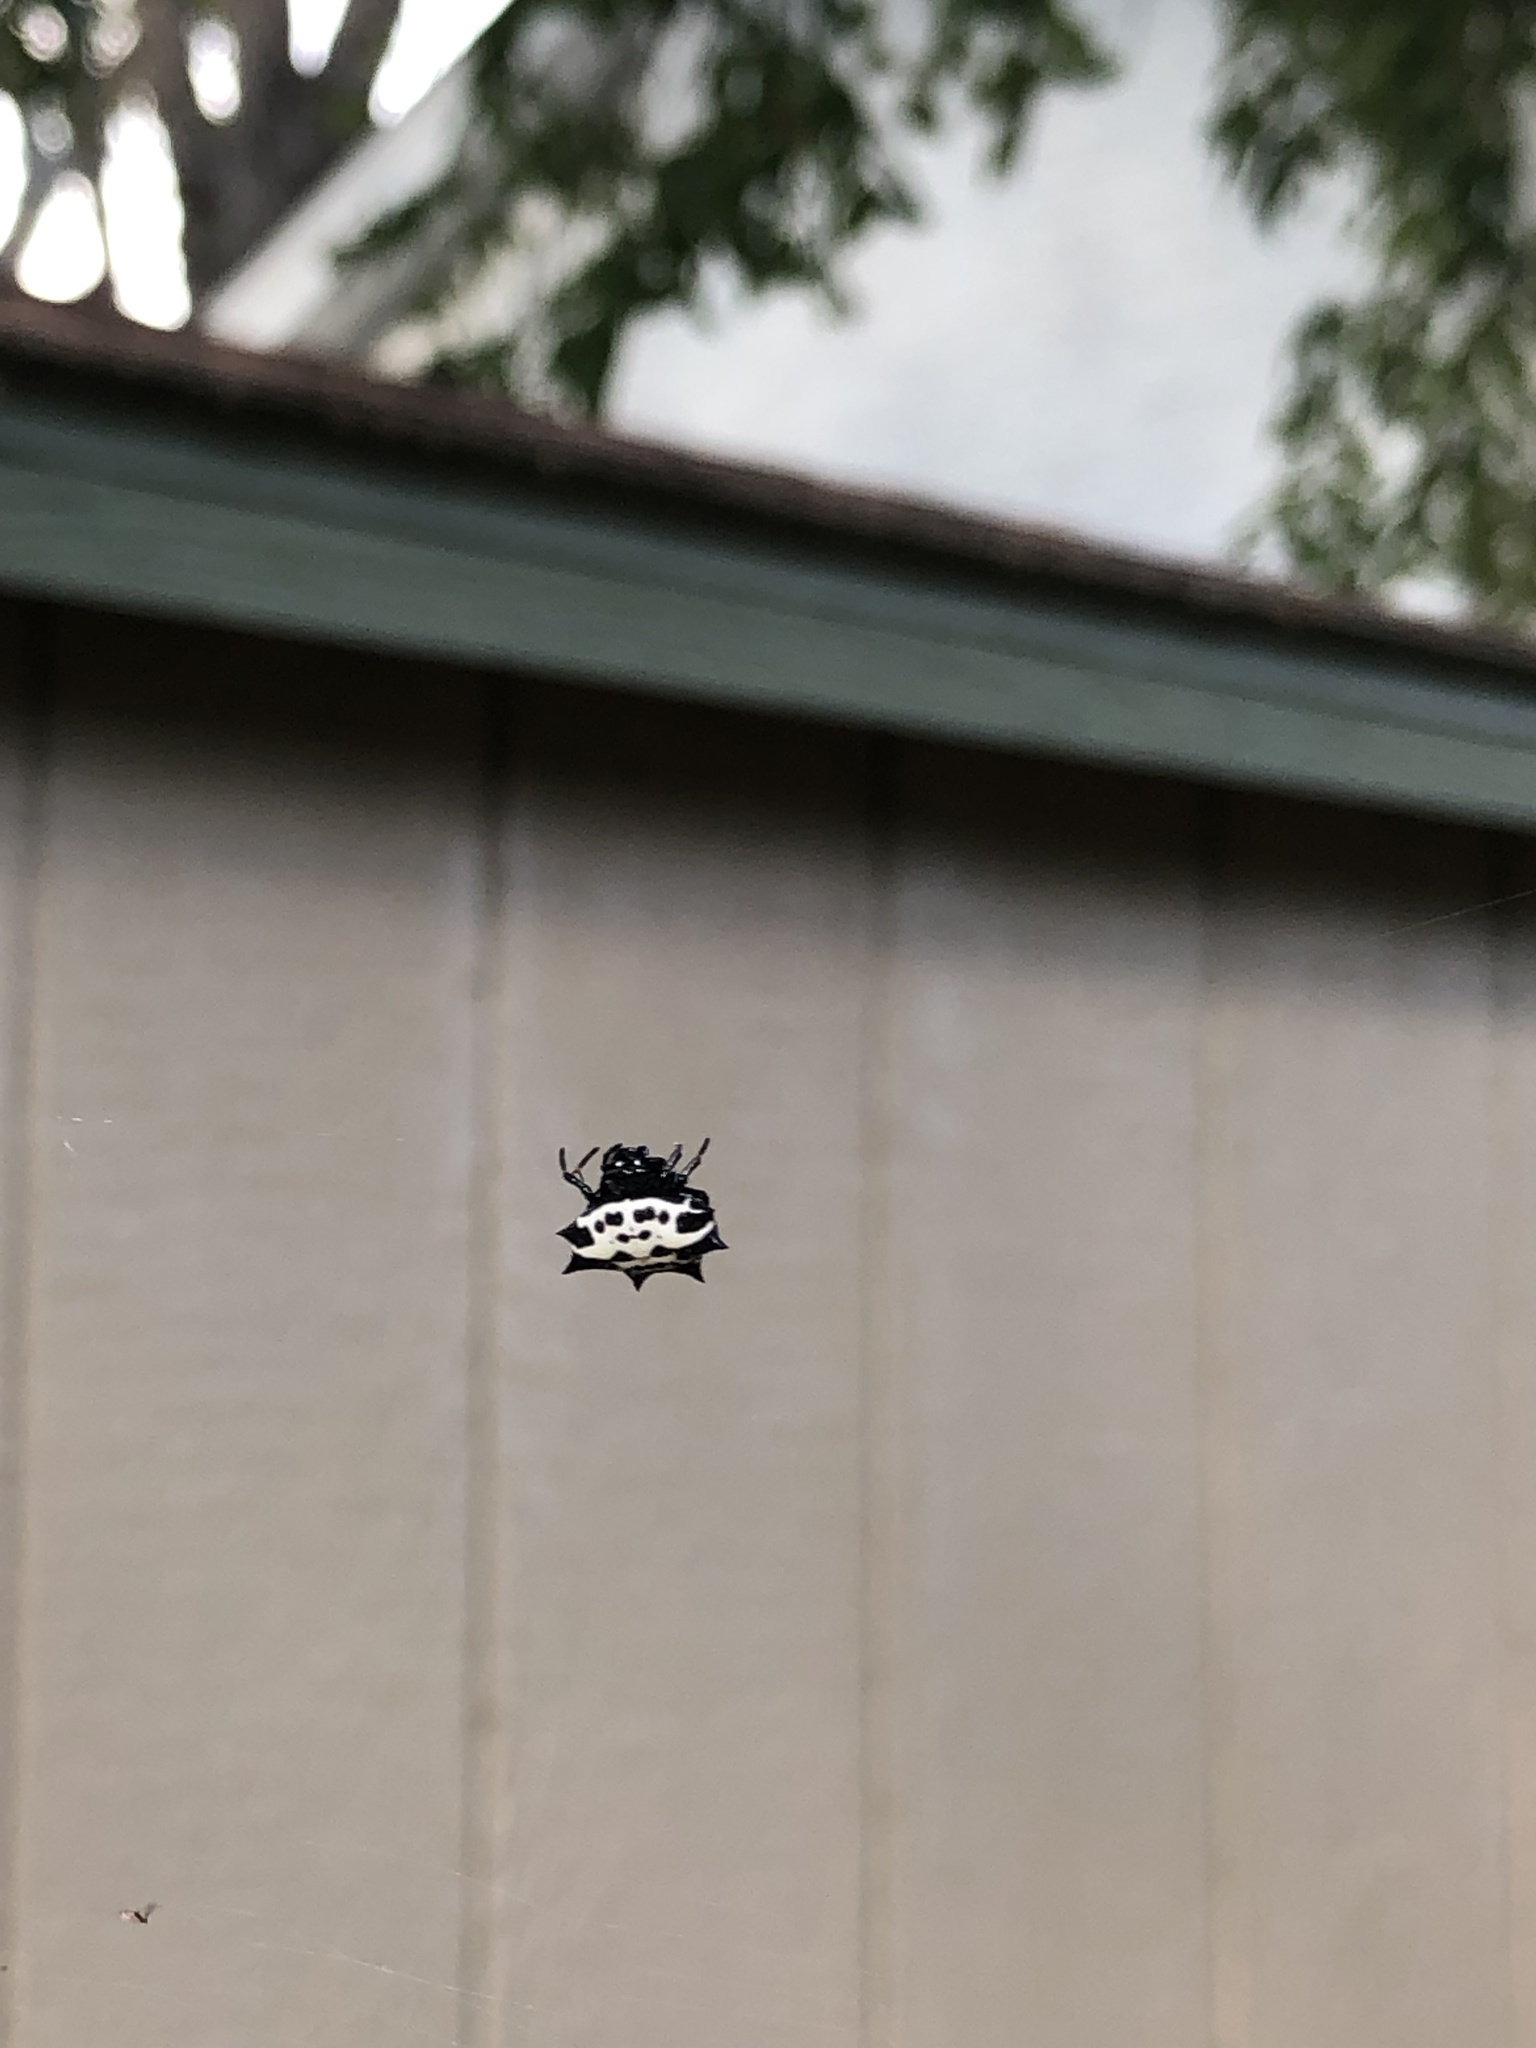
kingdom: Animalia
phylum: Arthropoda
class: Arachnida
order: Araneae
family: Araneidae
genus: Gasteracantha
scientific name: Gasteracantha cancriformis
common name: Orb weavers
